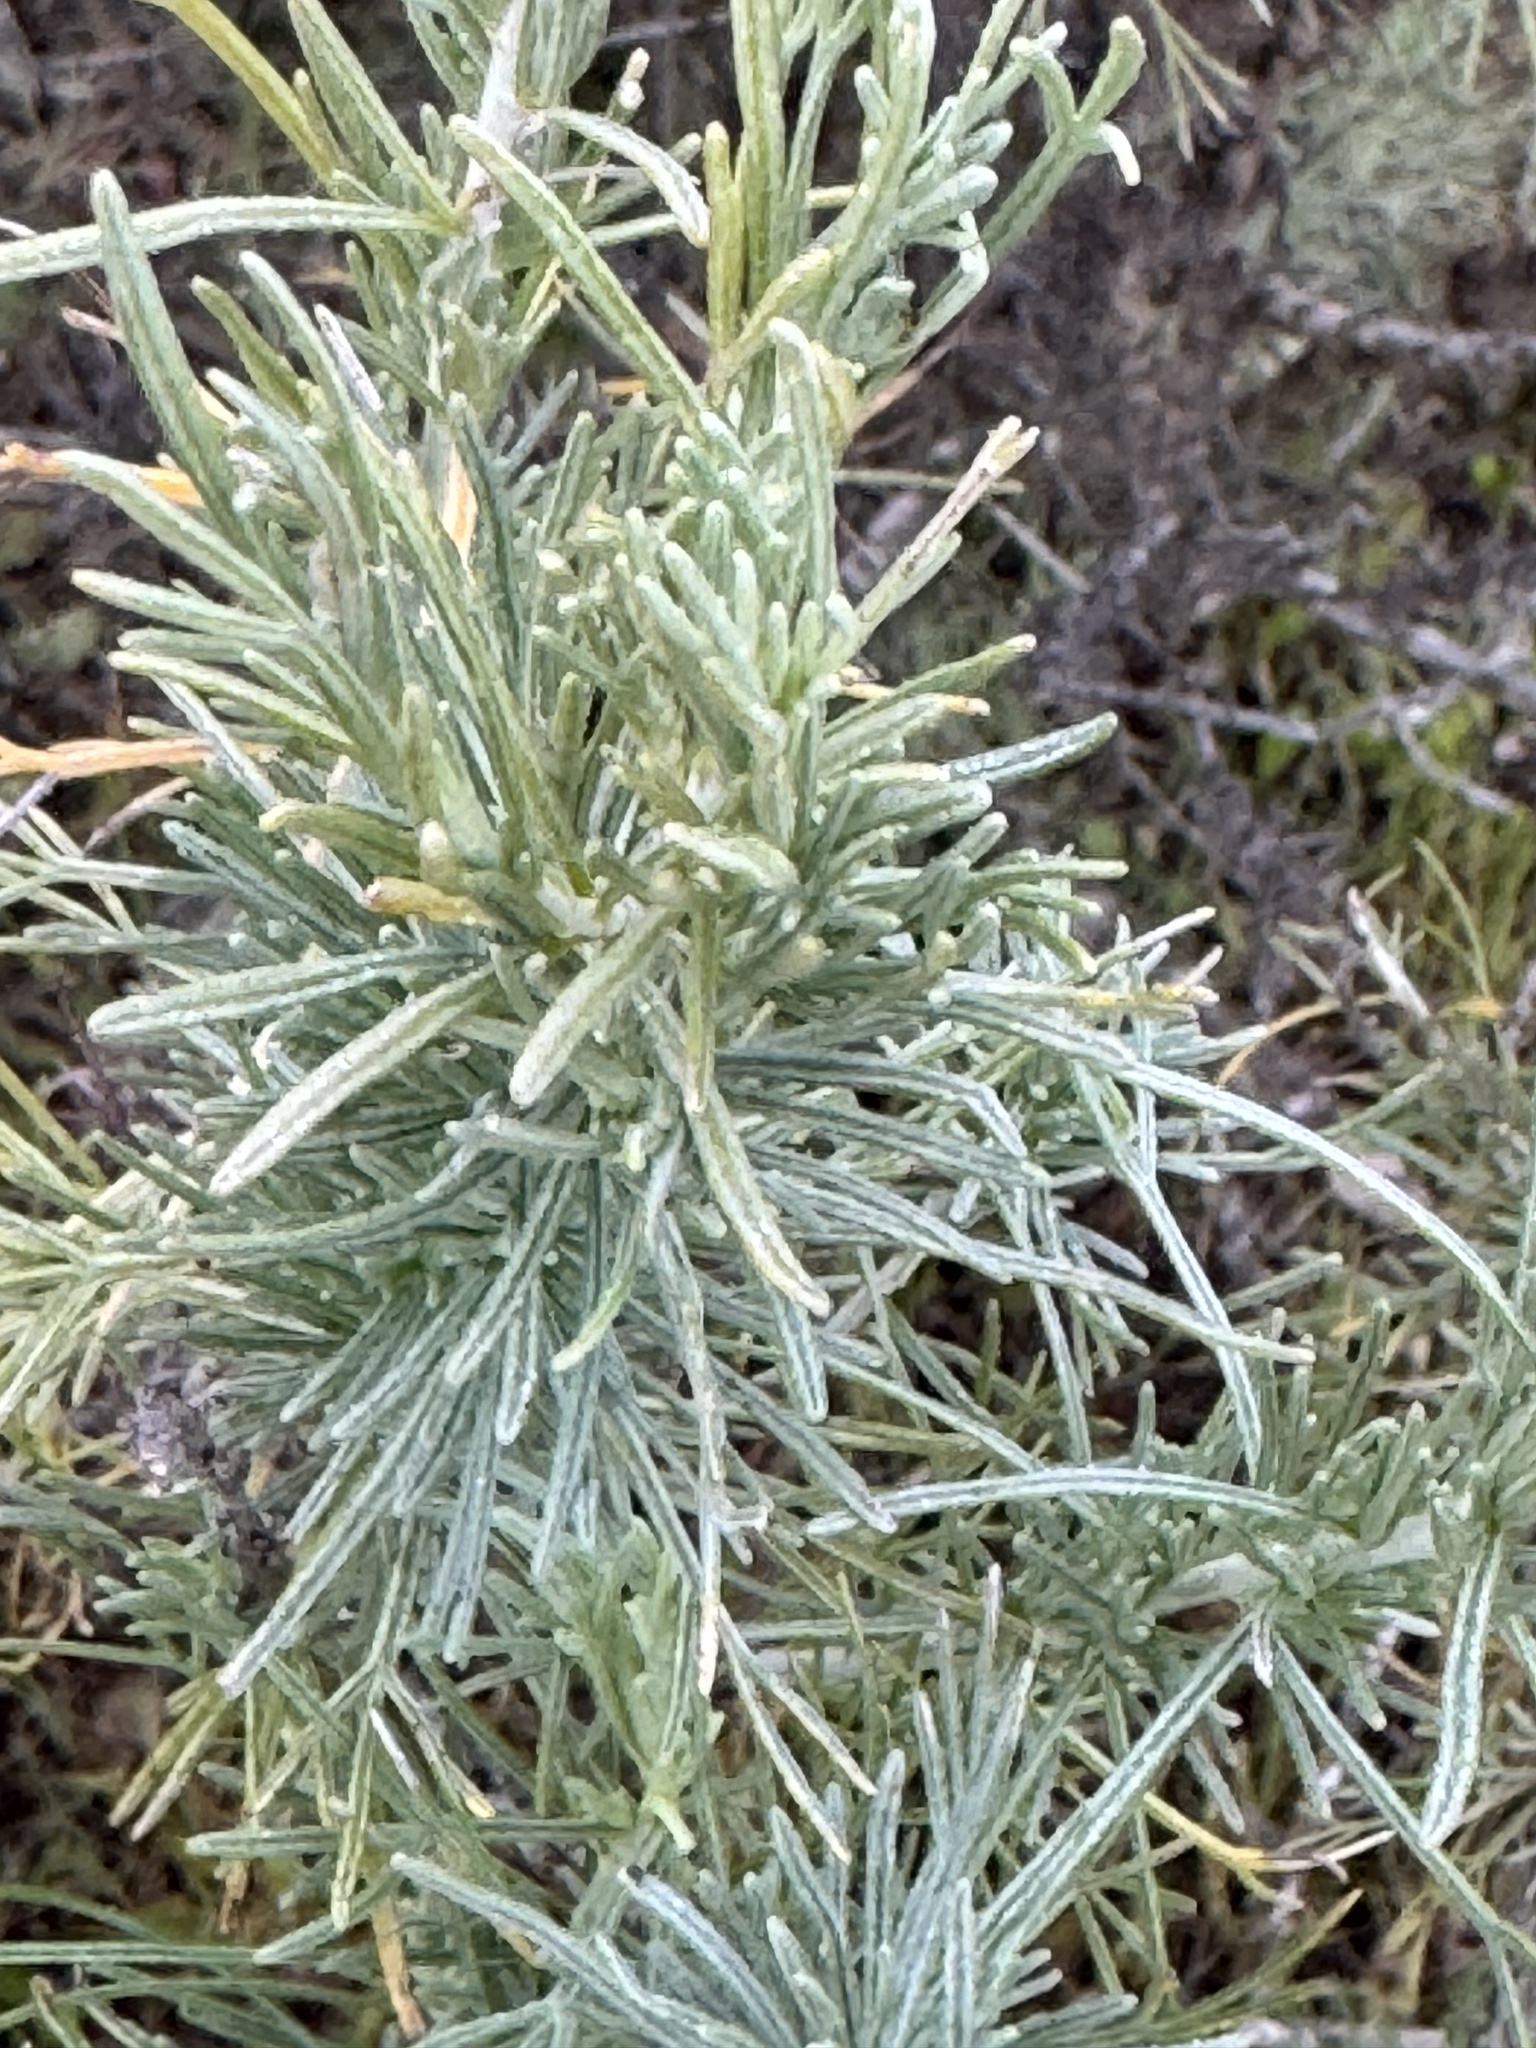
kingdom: Plantae
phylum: Tracheophyta
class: Magnoliopsida
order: Asterales
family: Asteraceae
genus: Artemisia
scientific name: Artemisia californica
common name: California sagebrush
